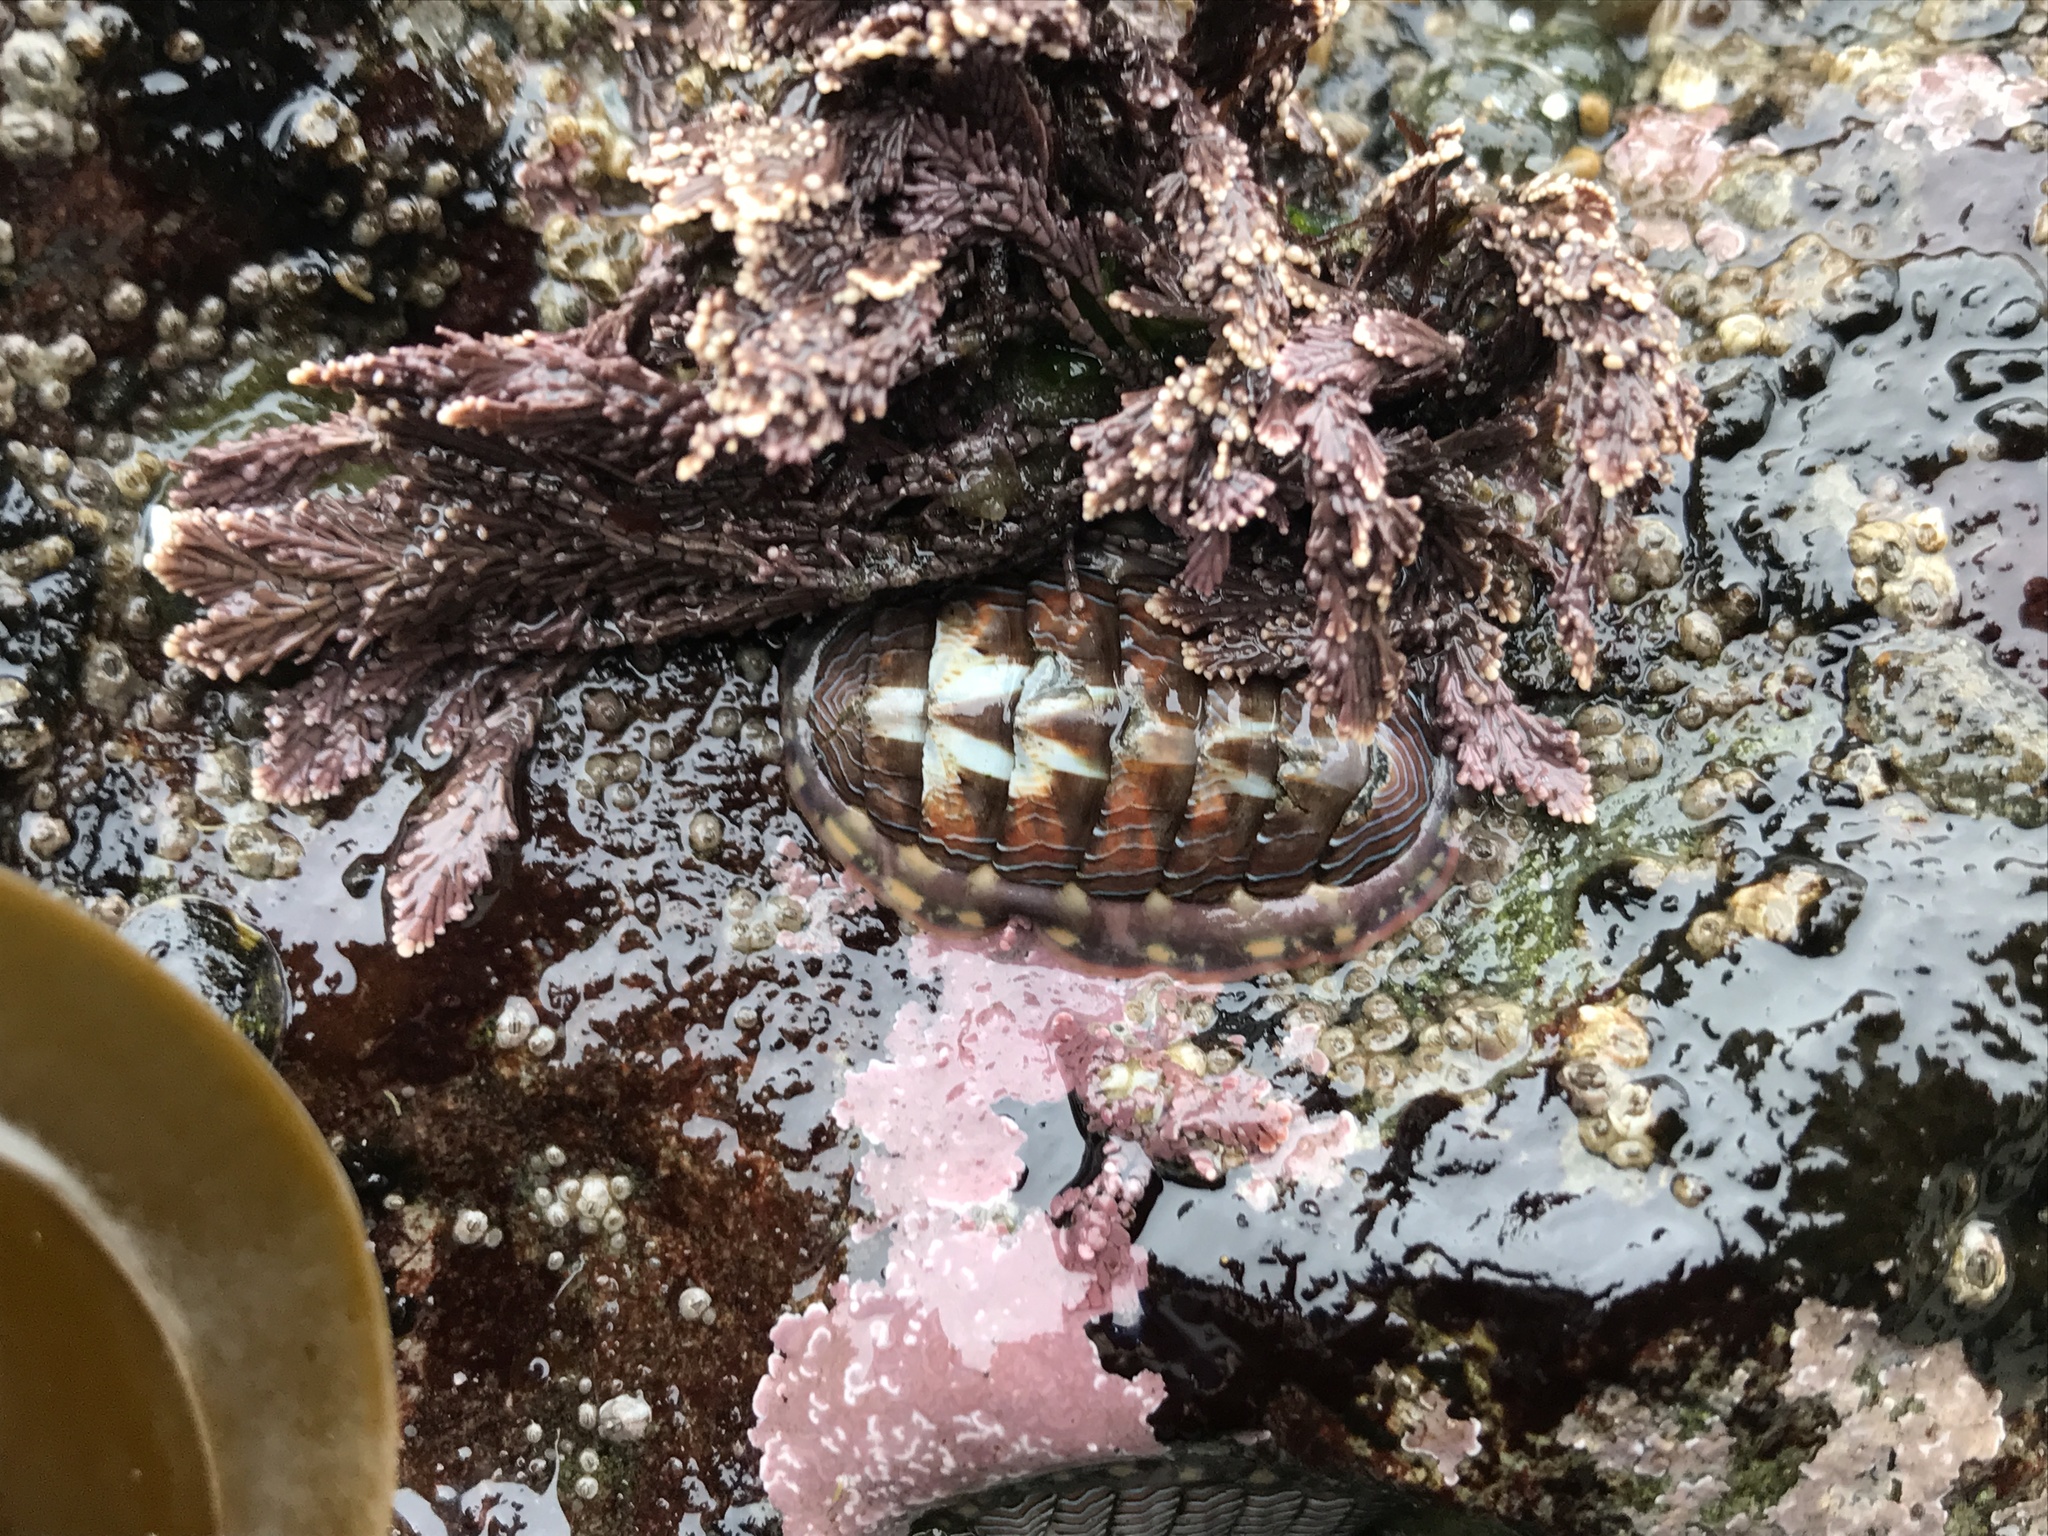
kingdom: Animalia
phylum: Mollusca
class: Polyplacophora
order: Chitonida
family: Tonicellidae
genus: Tonicella
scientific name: Tonicella lineata
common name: Lined chiton
